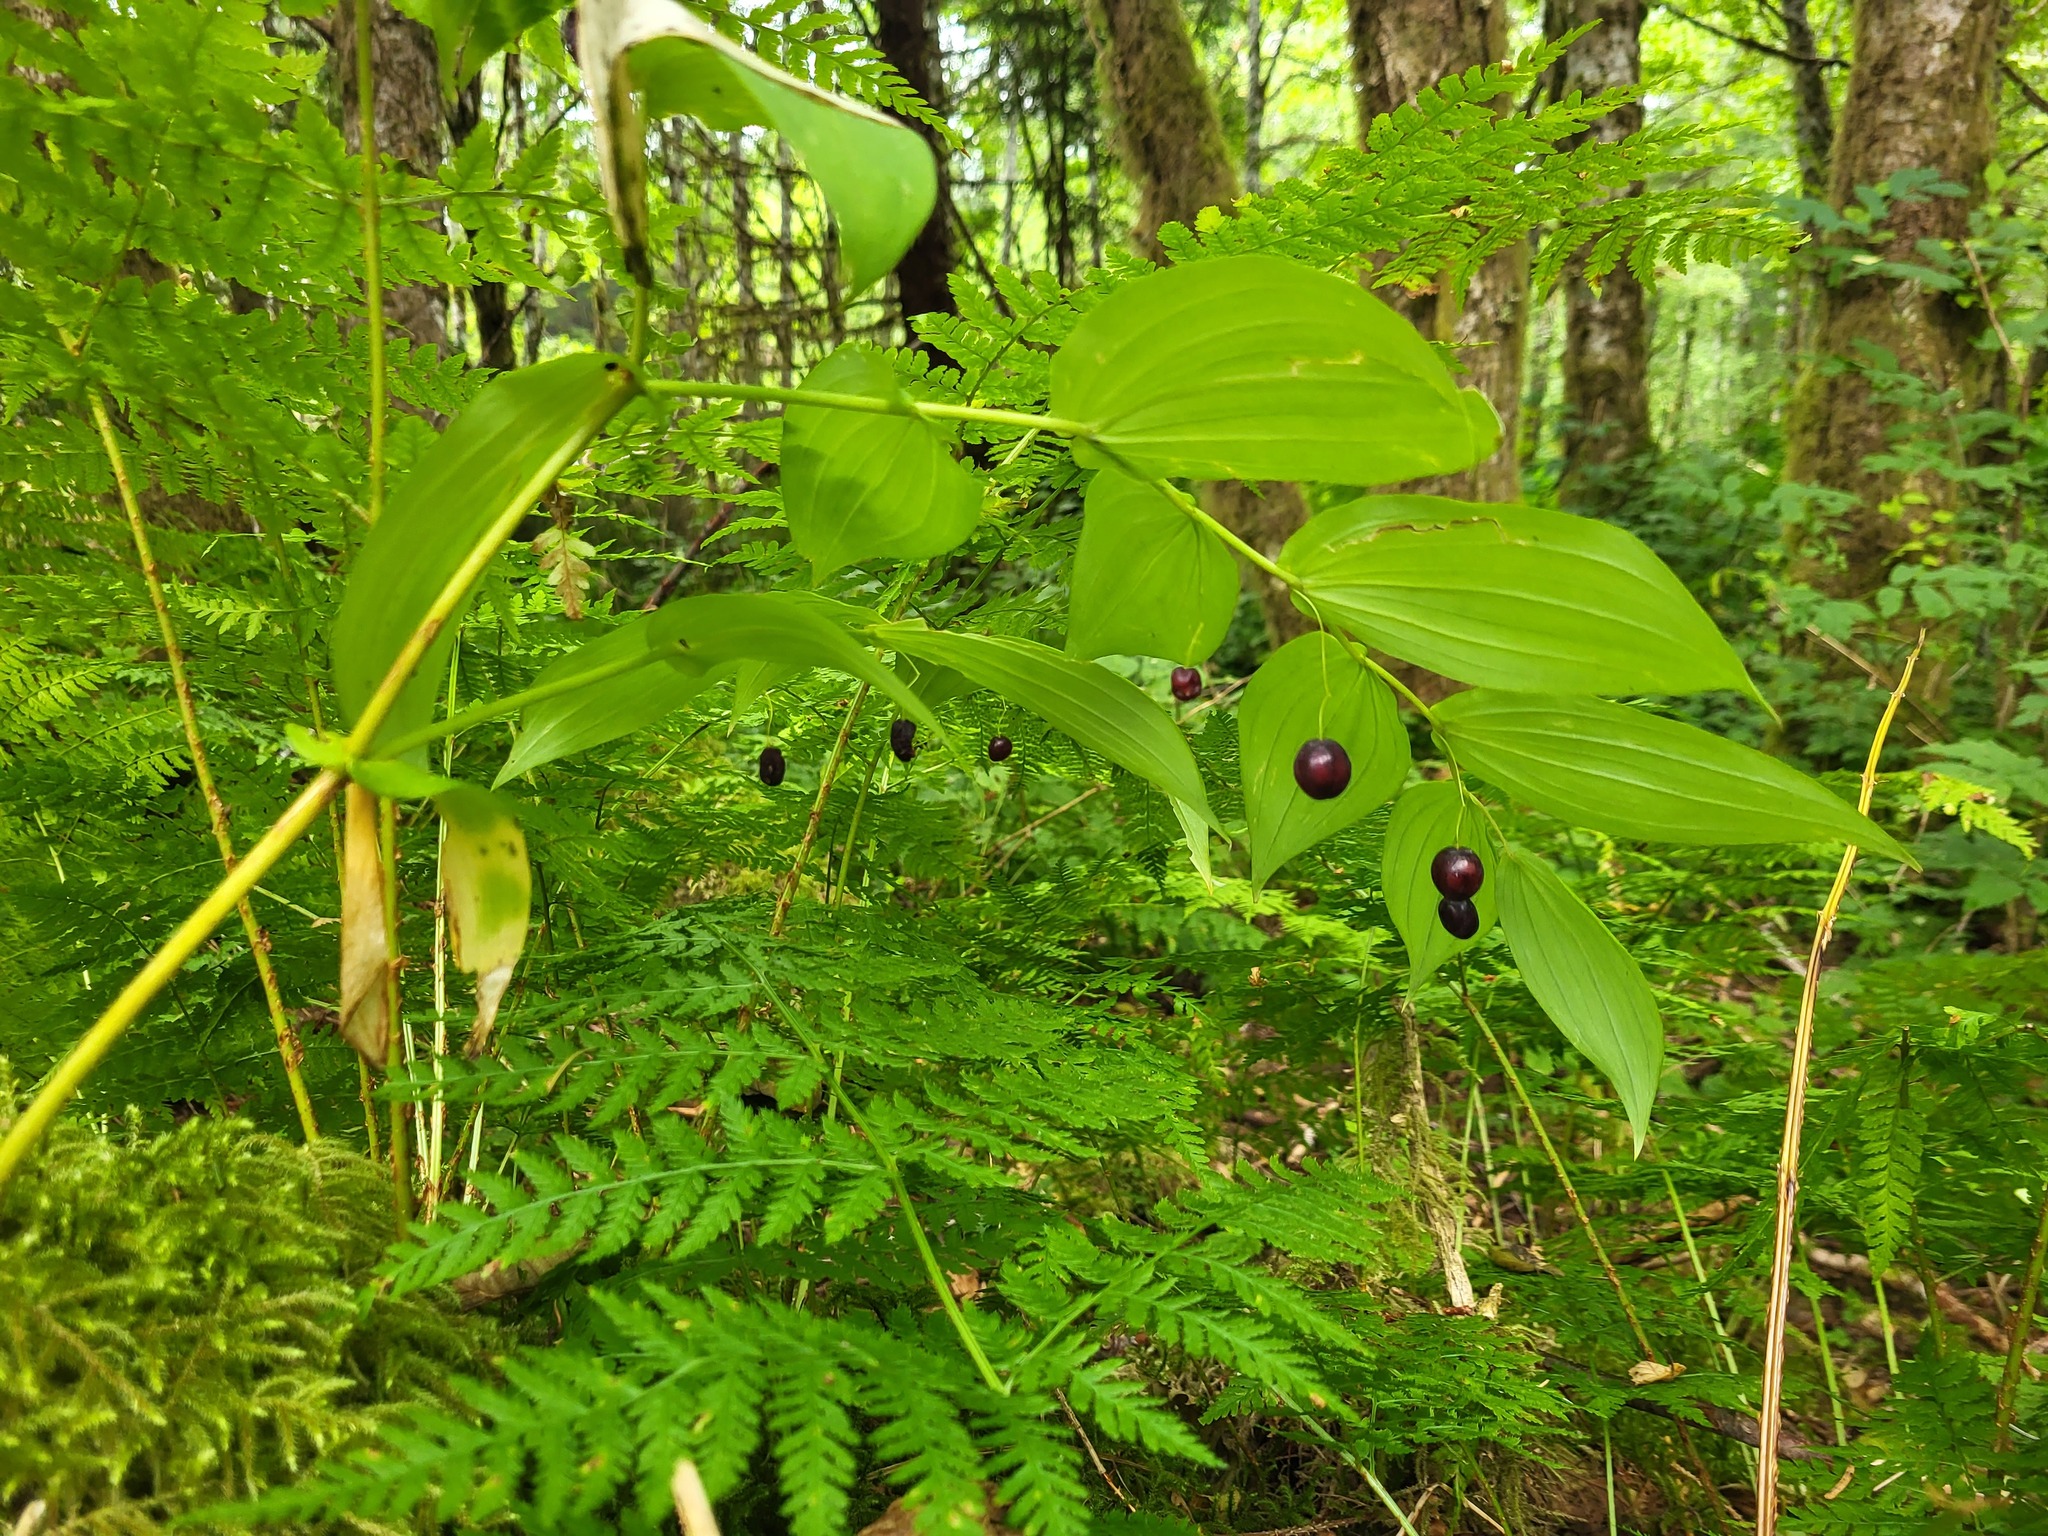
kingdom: Plantae
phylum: Tracheophyta
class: Liliopsida
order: Liliales
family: Liliaceae
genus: Streptopus
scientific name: Streptopus amplexifolius
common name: Clasp twisted stalk
